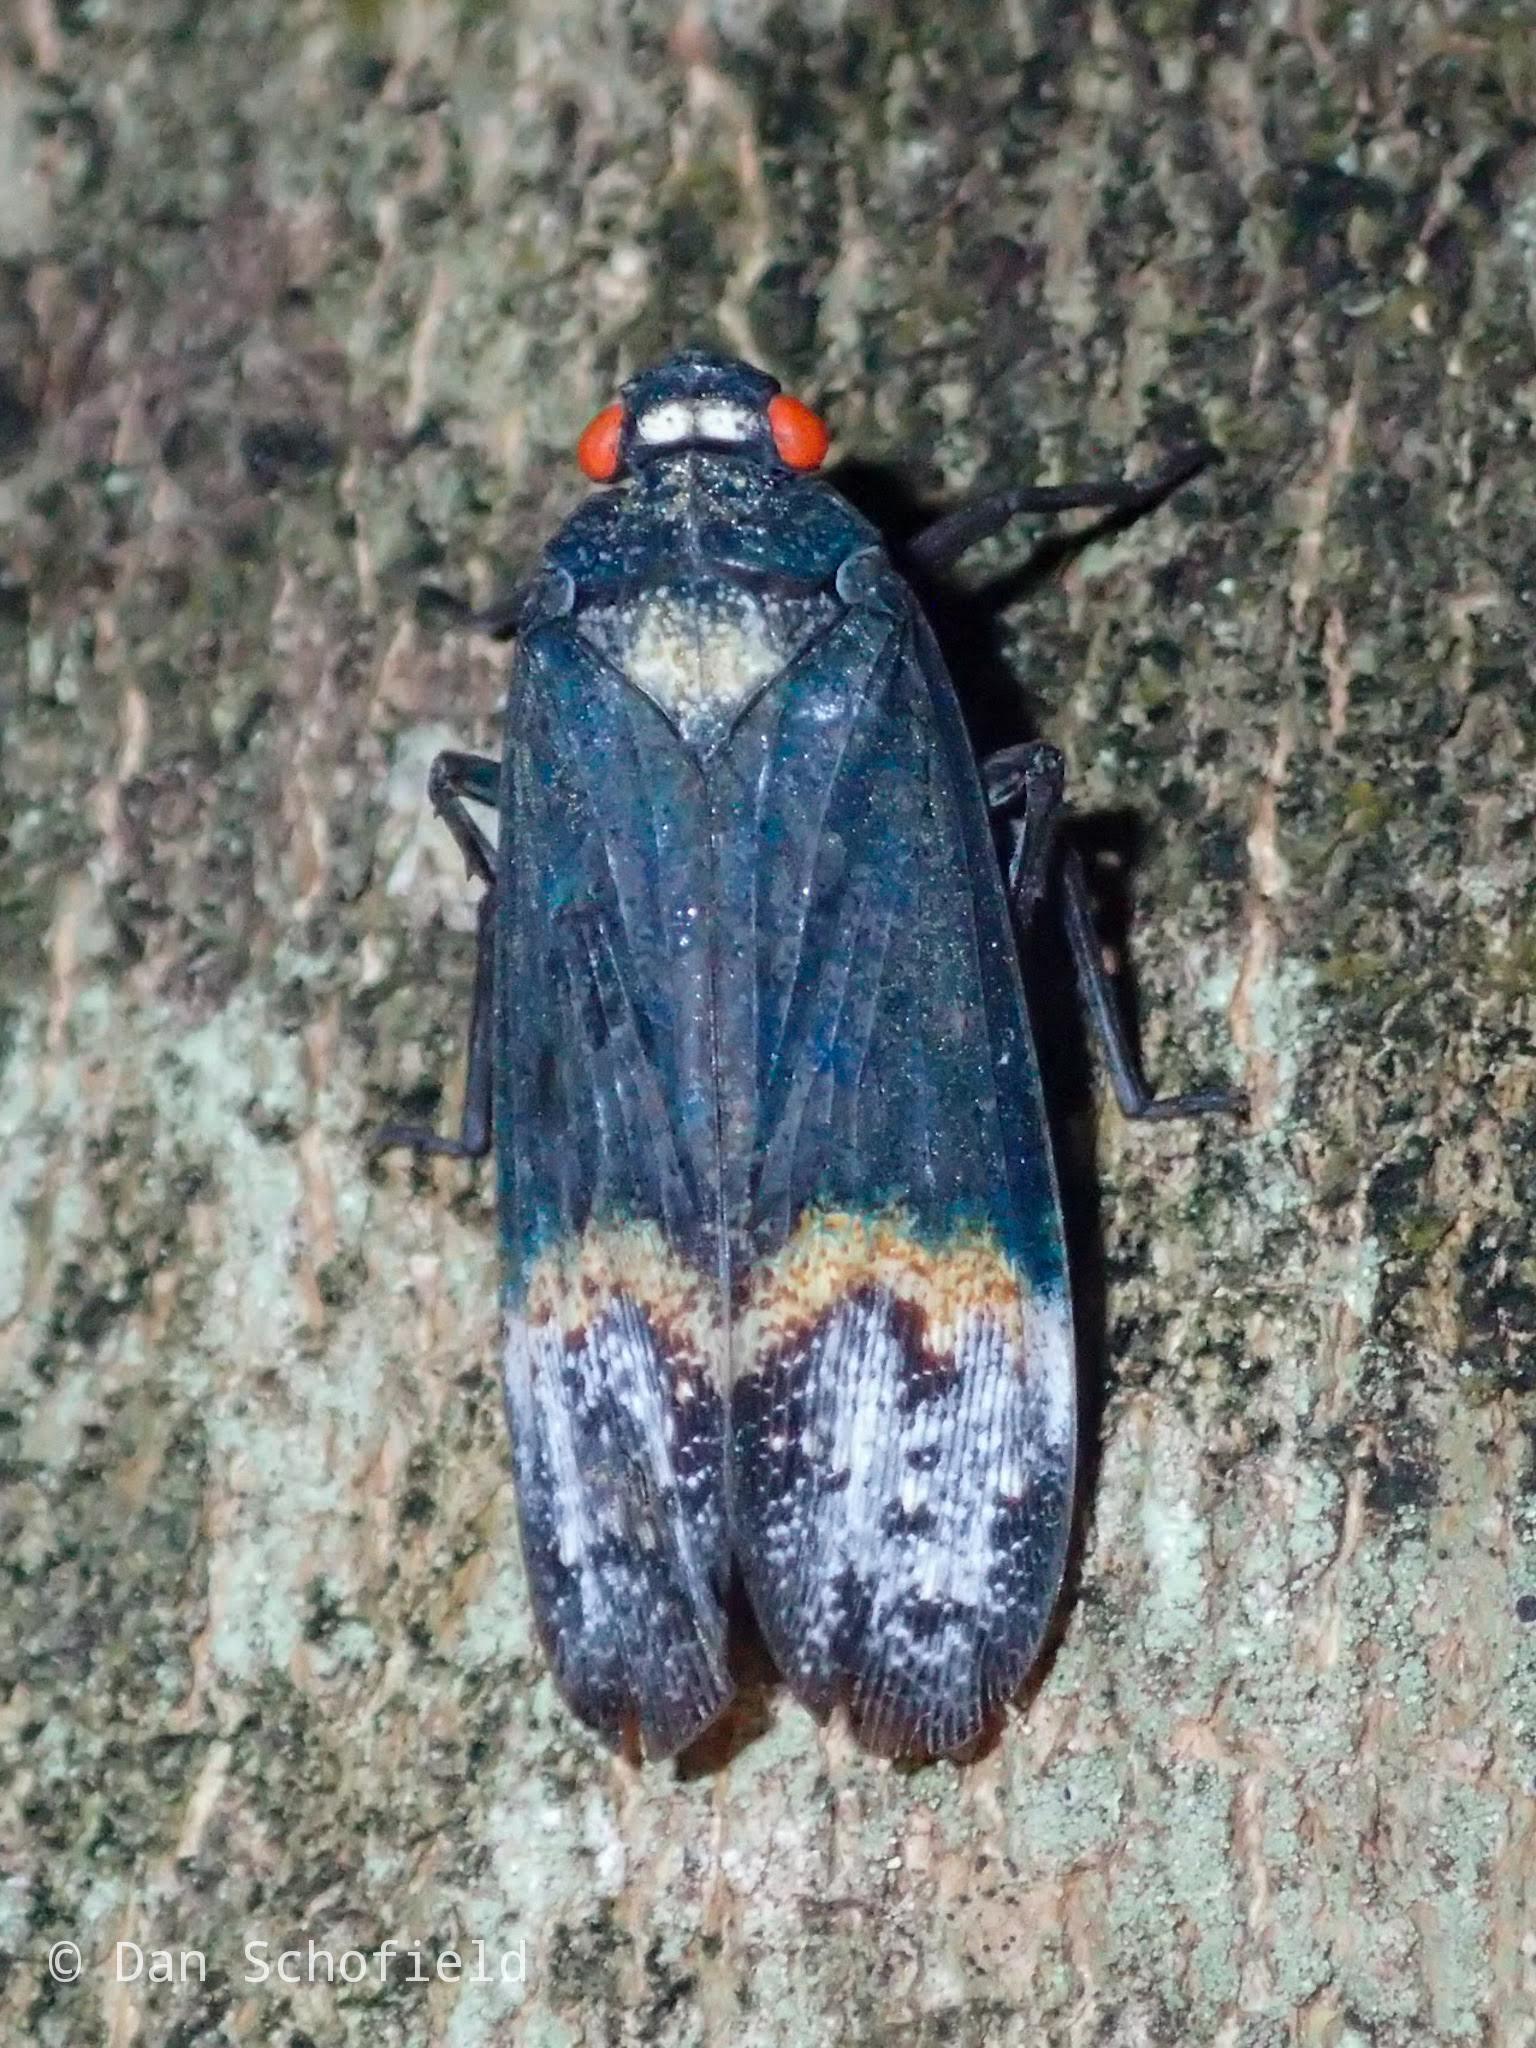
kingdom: Animalia
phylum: Arthropoda
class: Insecta
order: Hemiptera
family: Fulgoridae
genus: Penthicodes
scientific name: Penthicodes farinosa
